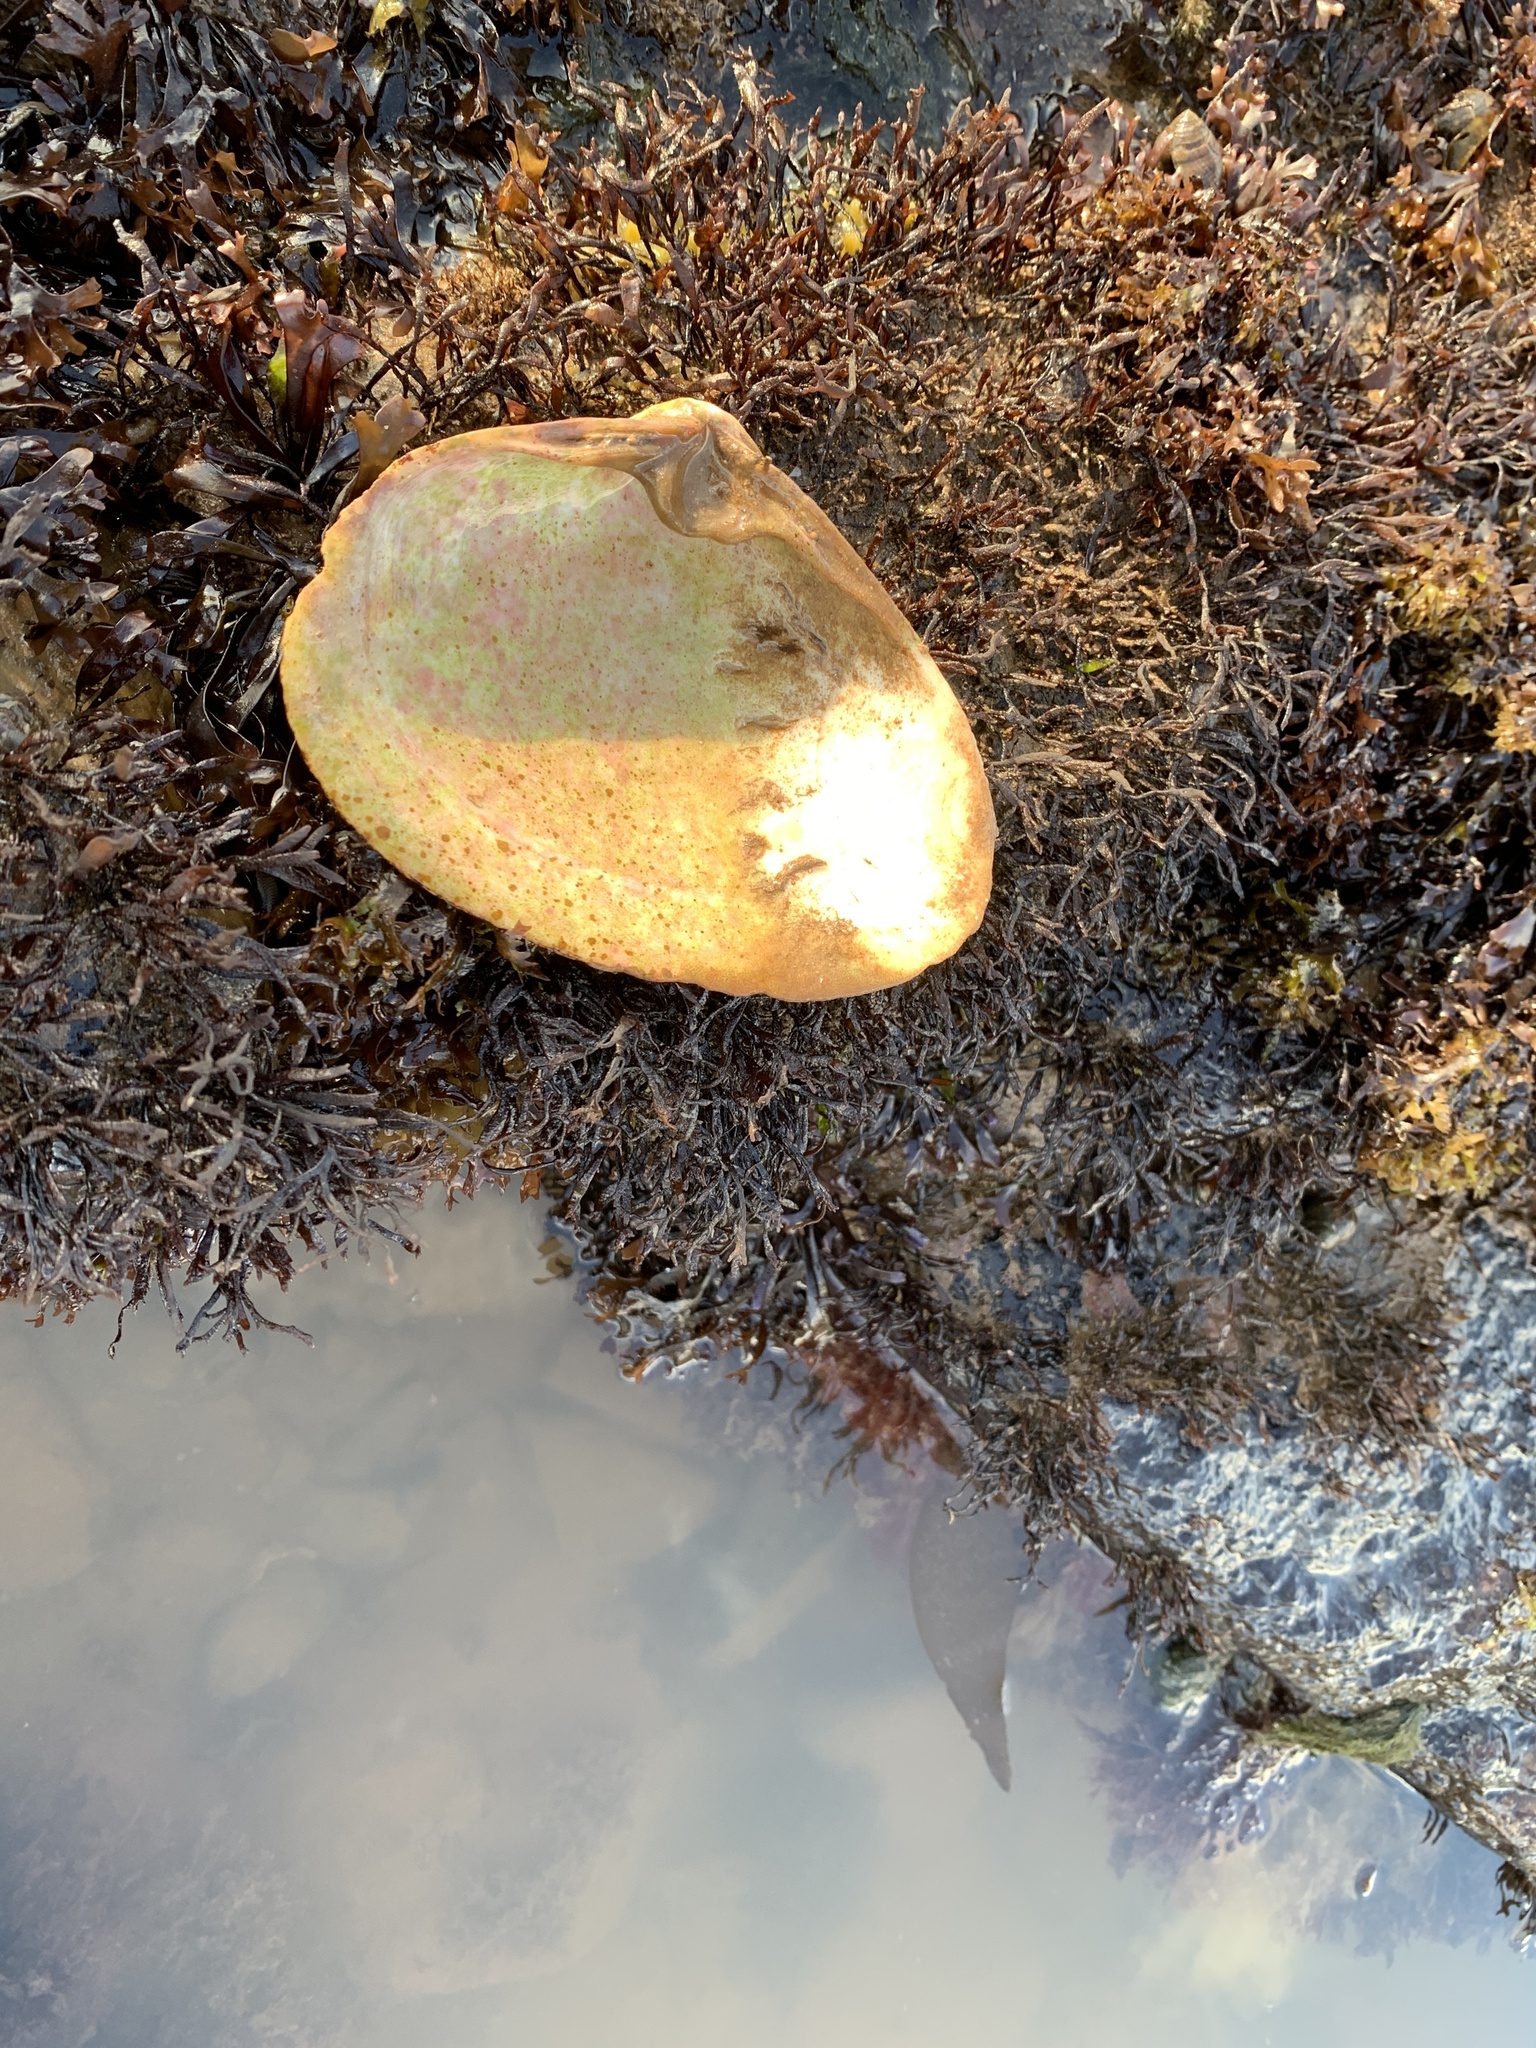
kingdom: Animalia
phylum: Mollusca
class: Bivalvia
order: Venerida
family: Mactridae
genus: Spisula
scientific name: Spisula solidissima
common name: Atlantic surf clam
